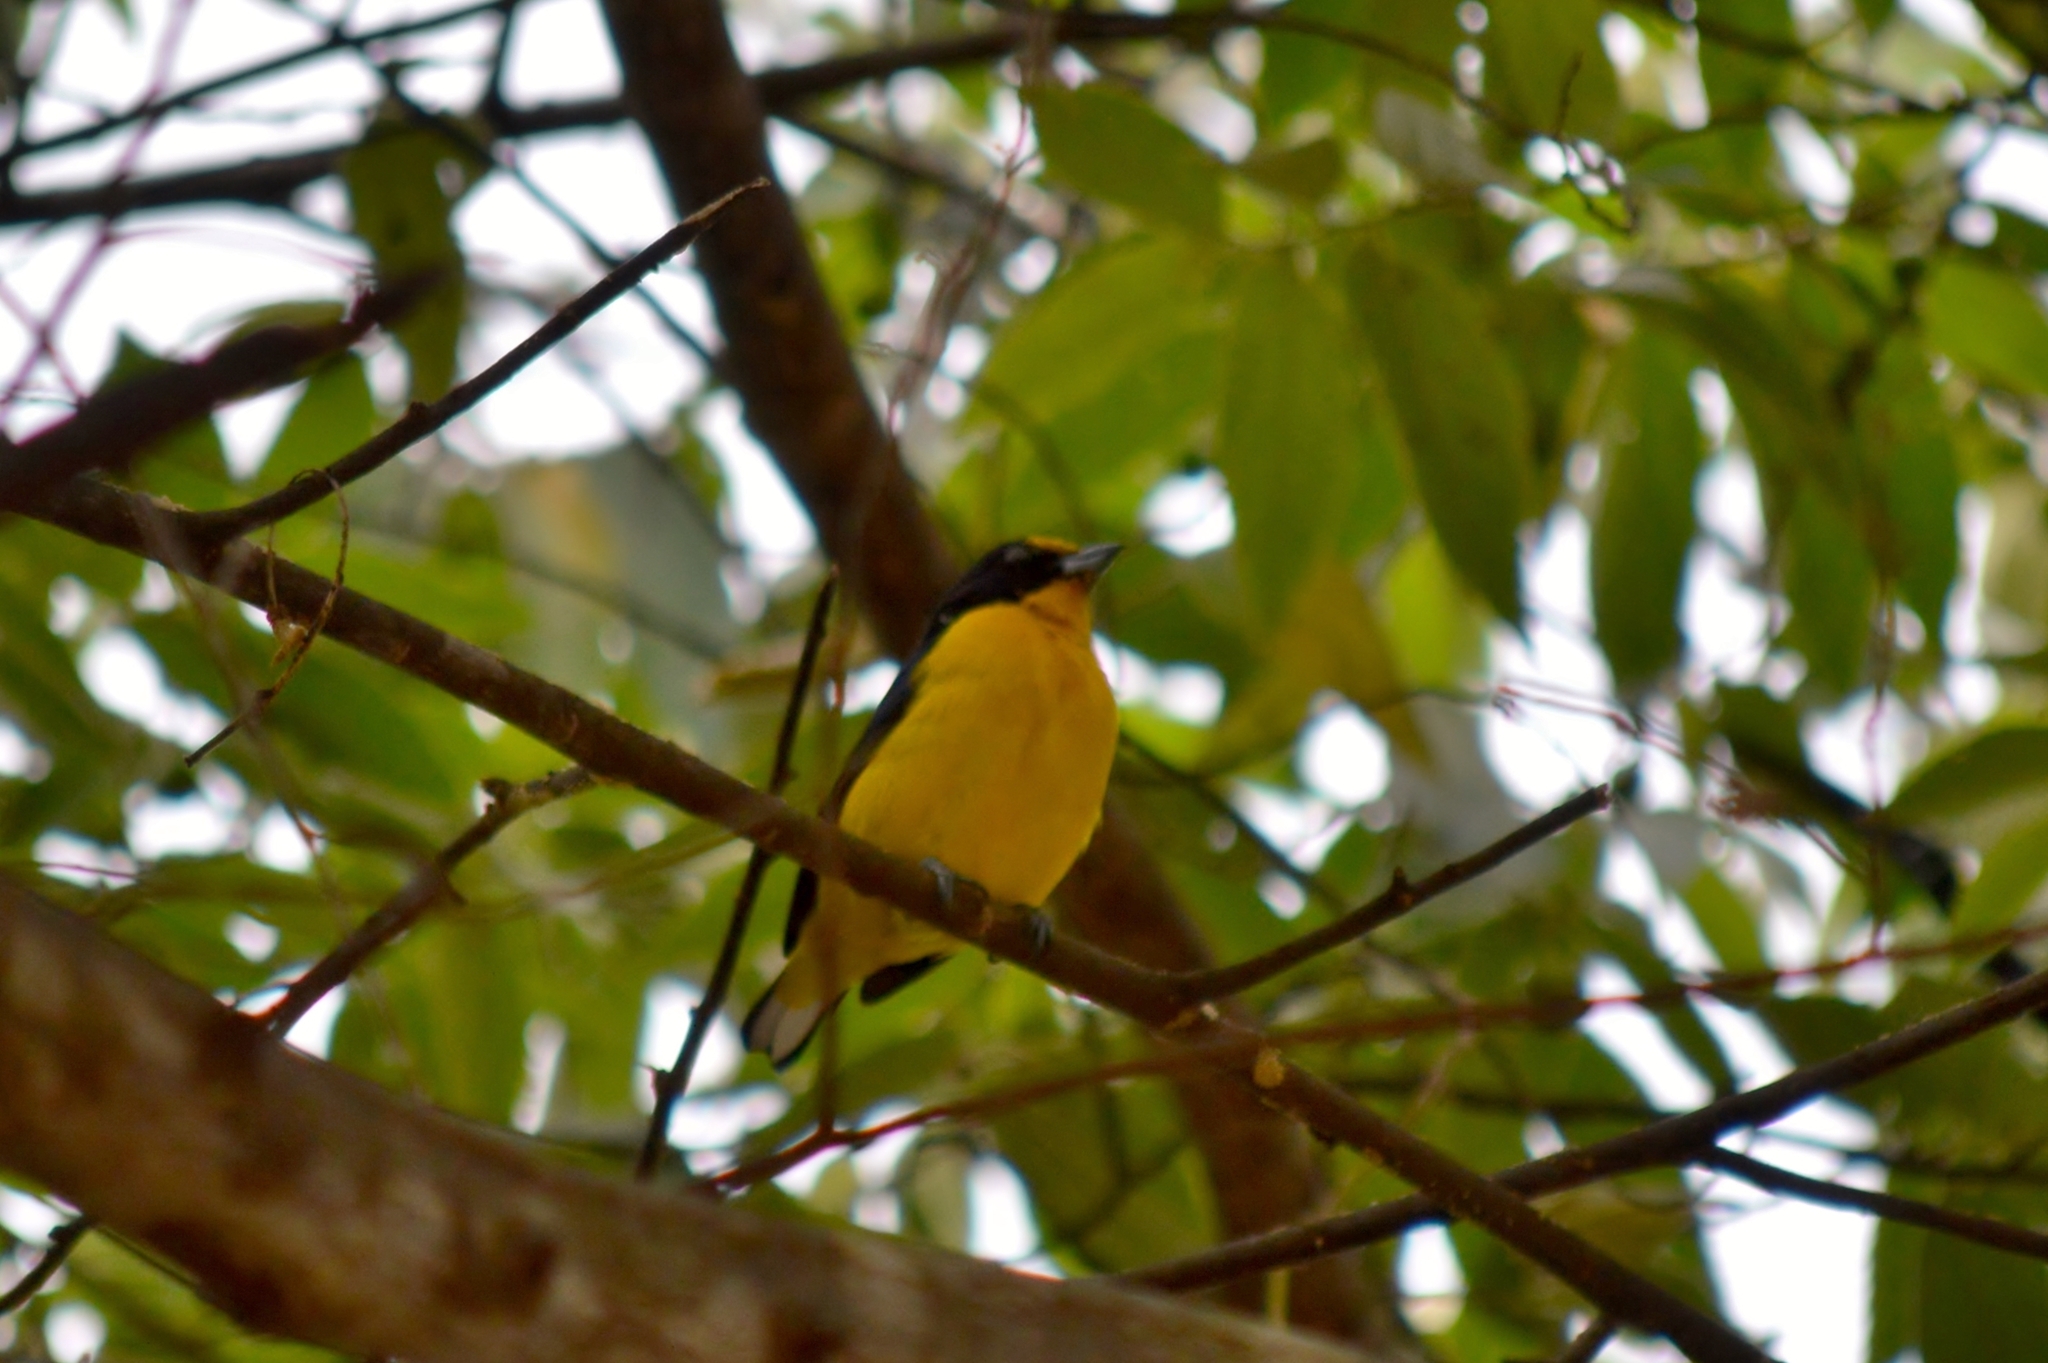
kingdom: Animalia
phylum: Chordata
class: Aves
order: Passeriformes
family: Fringillidae
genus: Euphonia
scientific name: Euphonia violacea
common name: Violaceous euphonia
